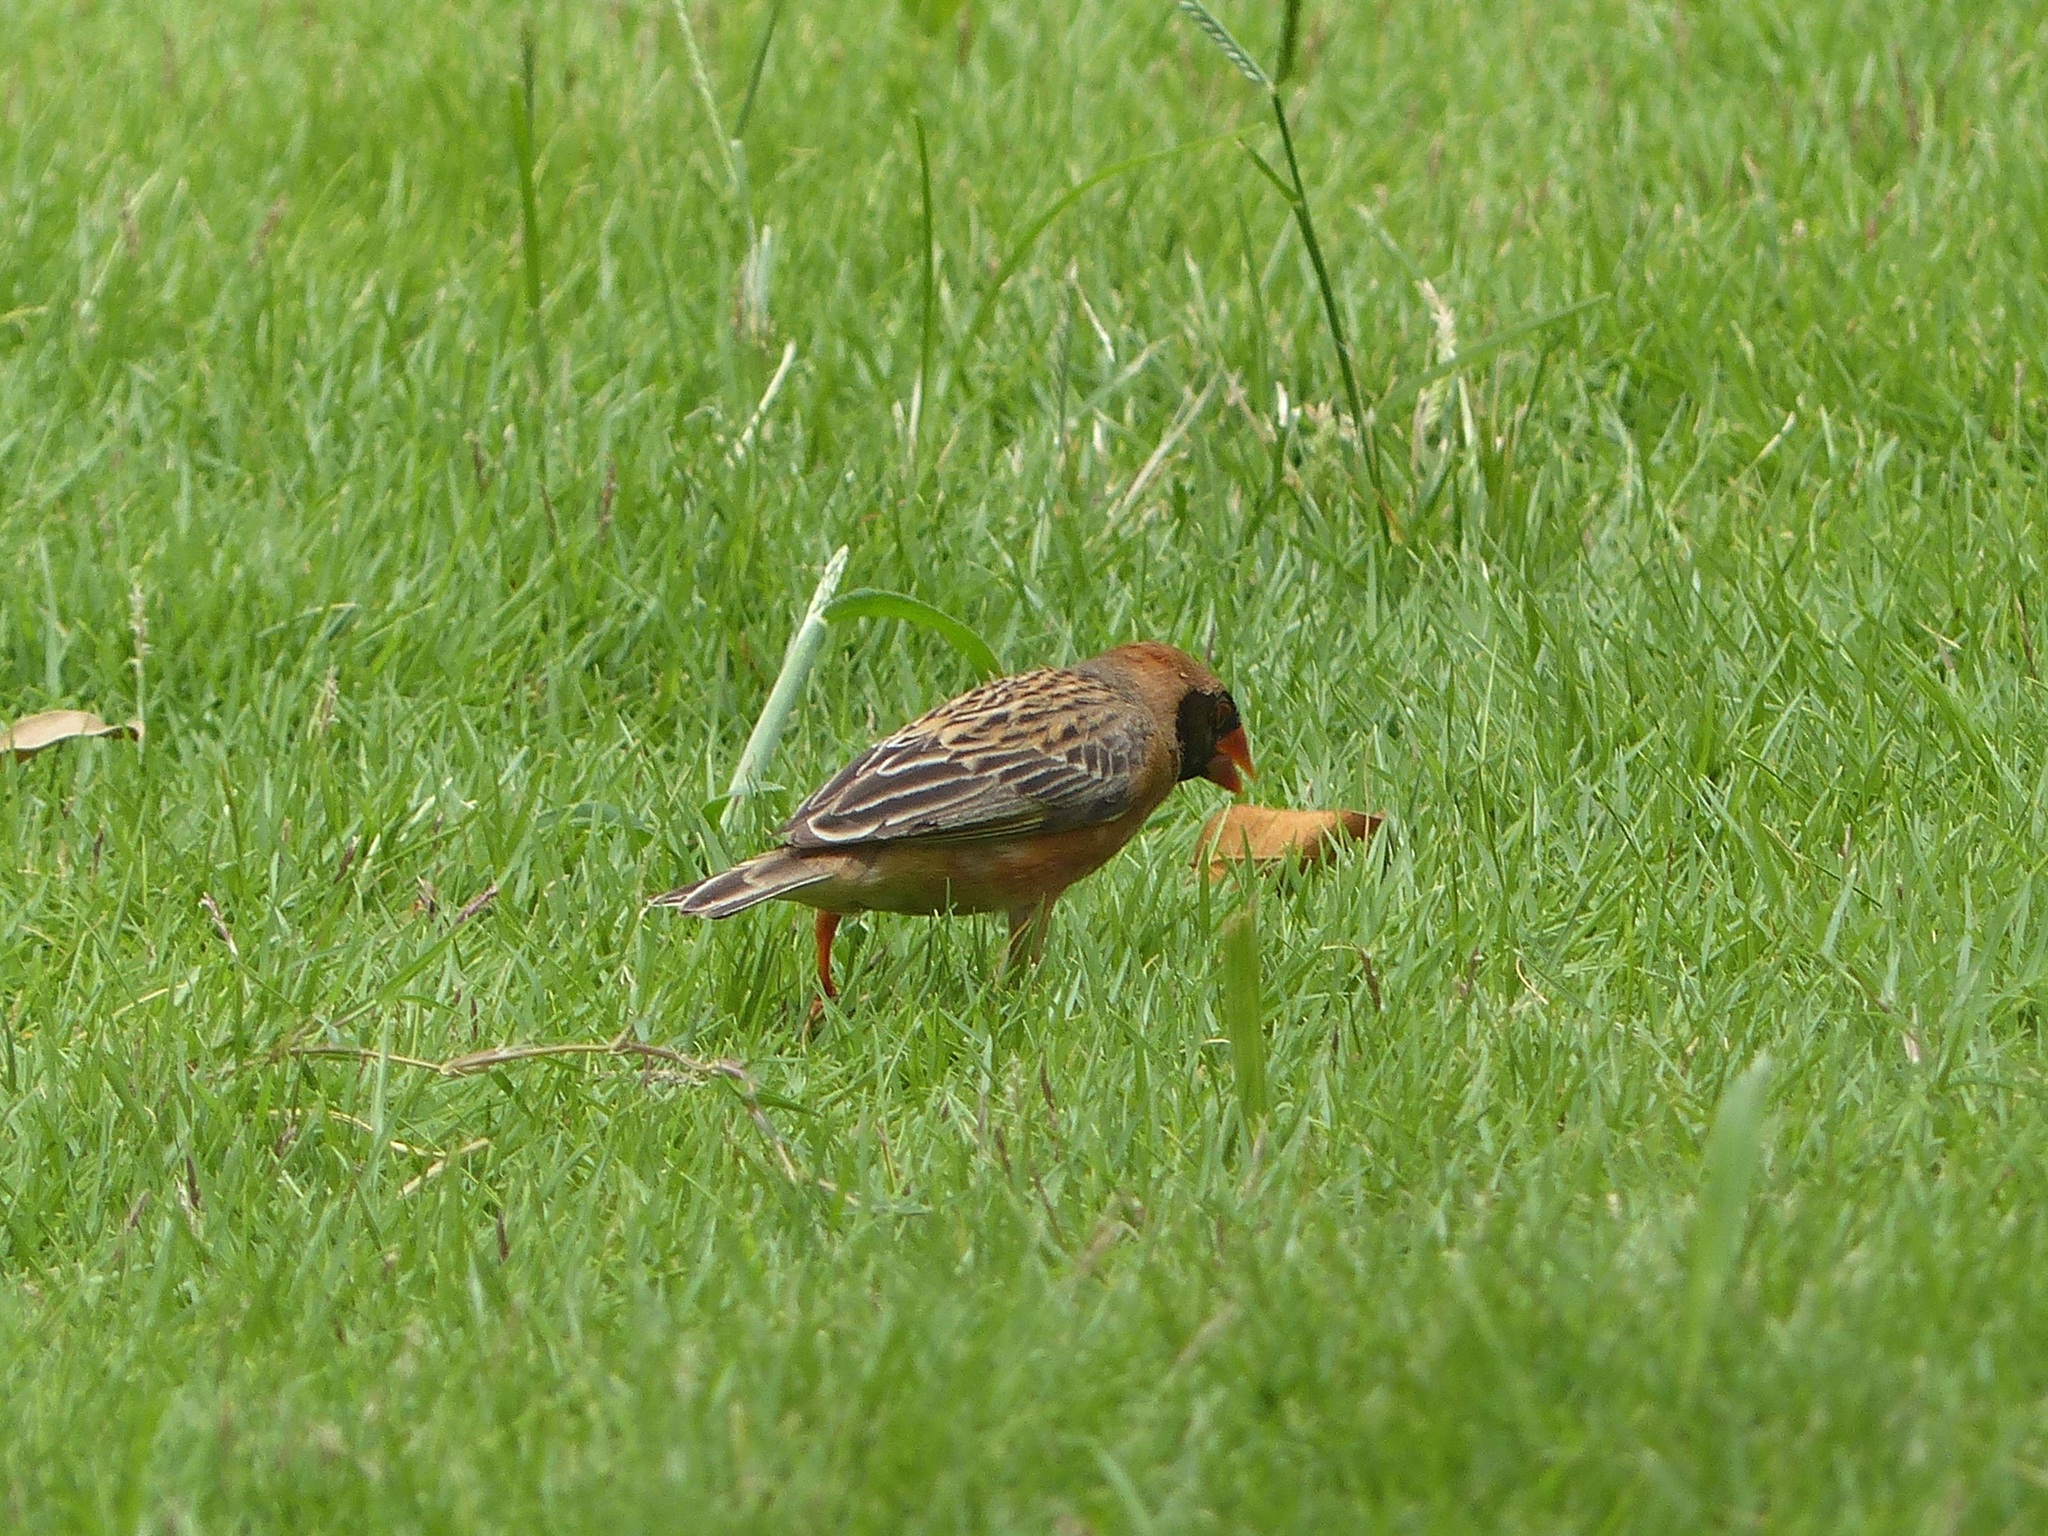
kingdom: Animalia
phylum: Chordata
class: Aves
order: Passeriformes
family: Ploceidae
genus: Quelea
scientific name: Quelea quelea
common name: Red-billed quelea
